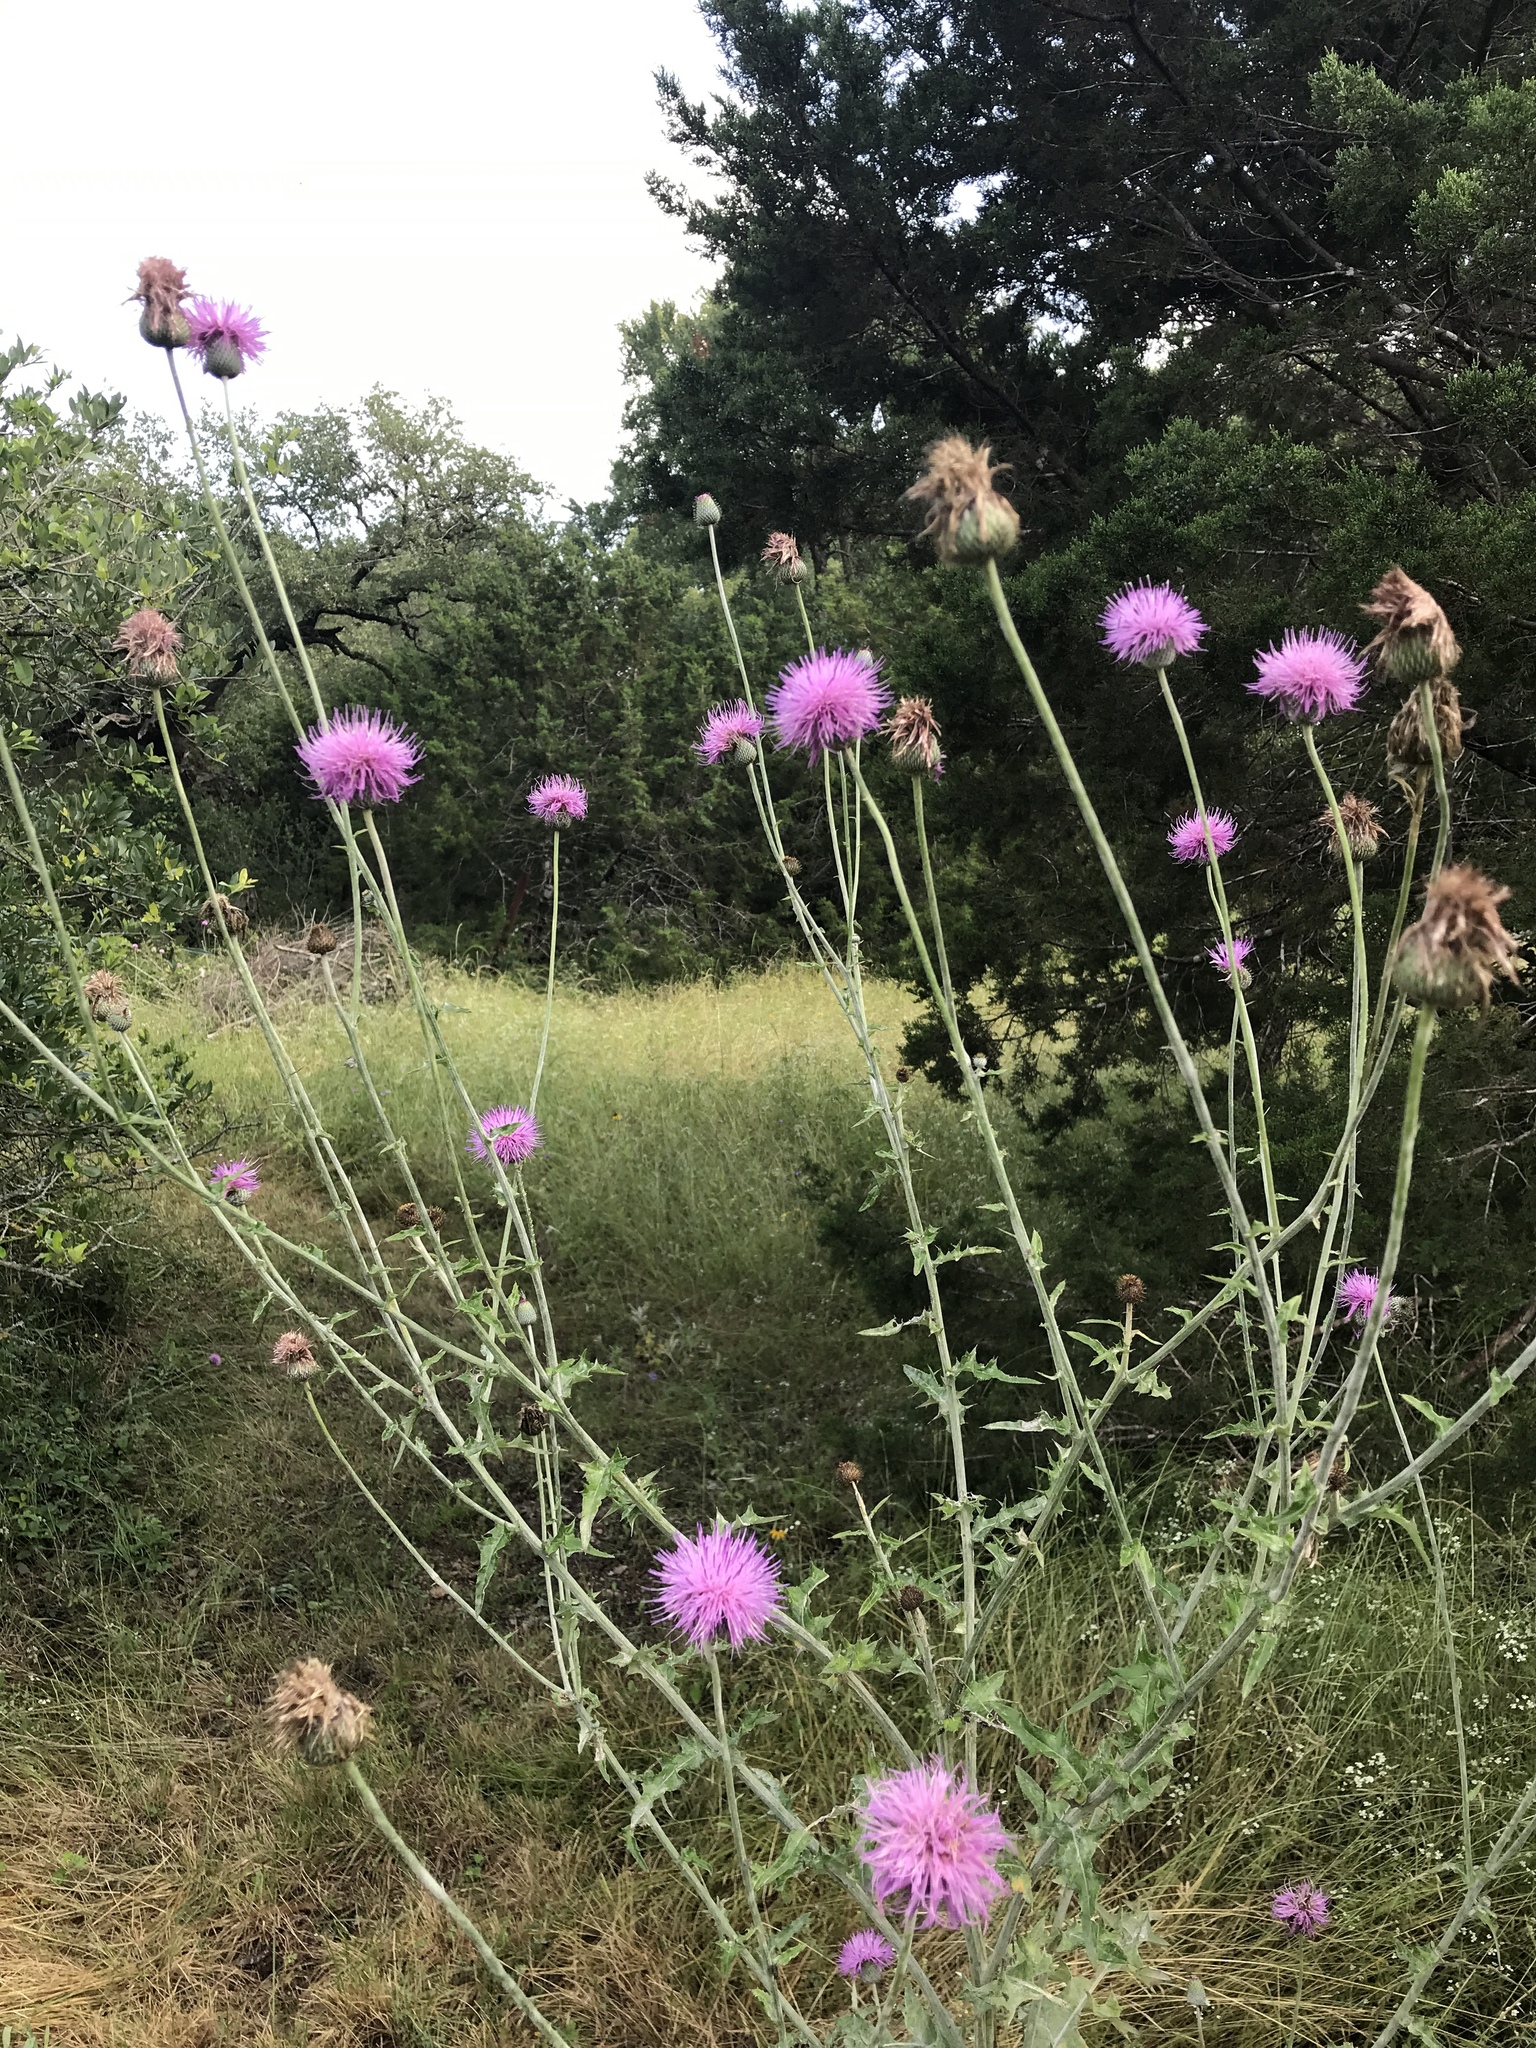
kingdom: Plantae
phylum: Tracheophyta
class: Magnoliopsida
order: Asterales
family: Asteraceae
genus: Cirsium
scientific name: Cirsium texanum
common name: Texas purple thistle
